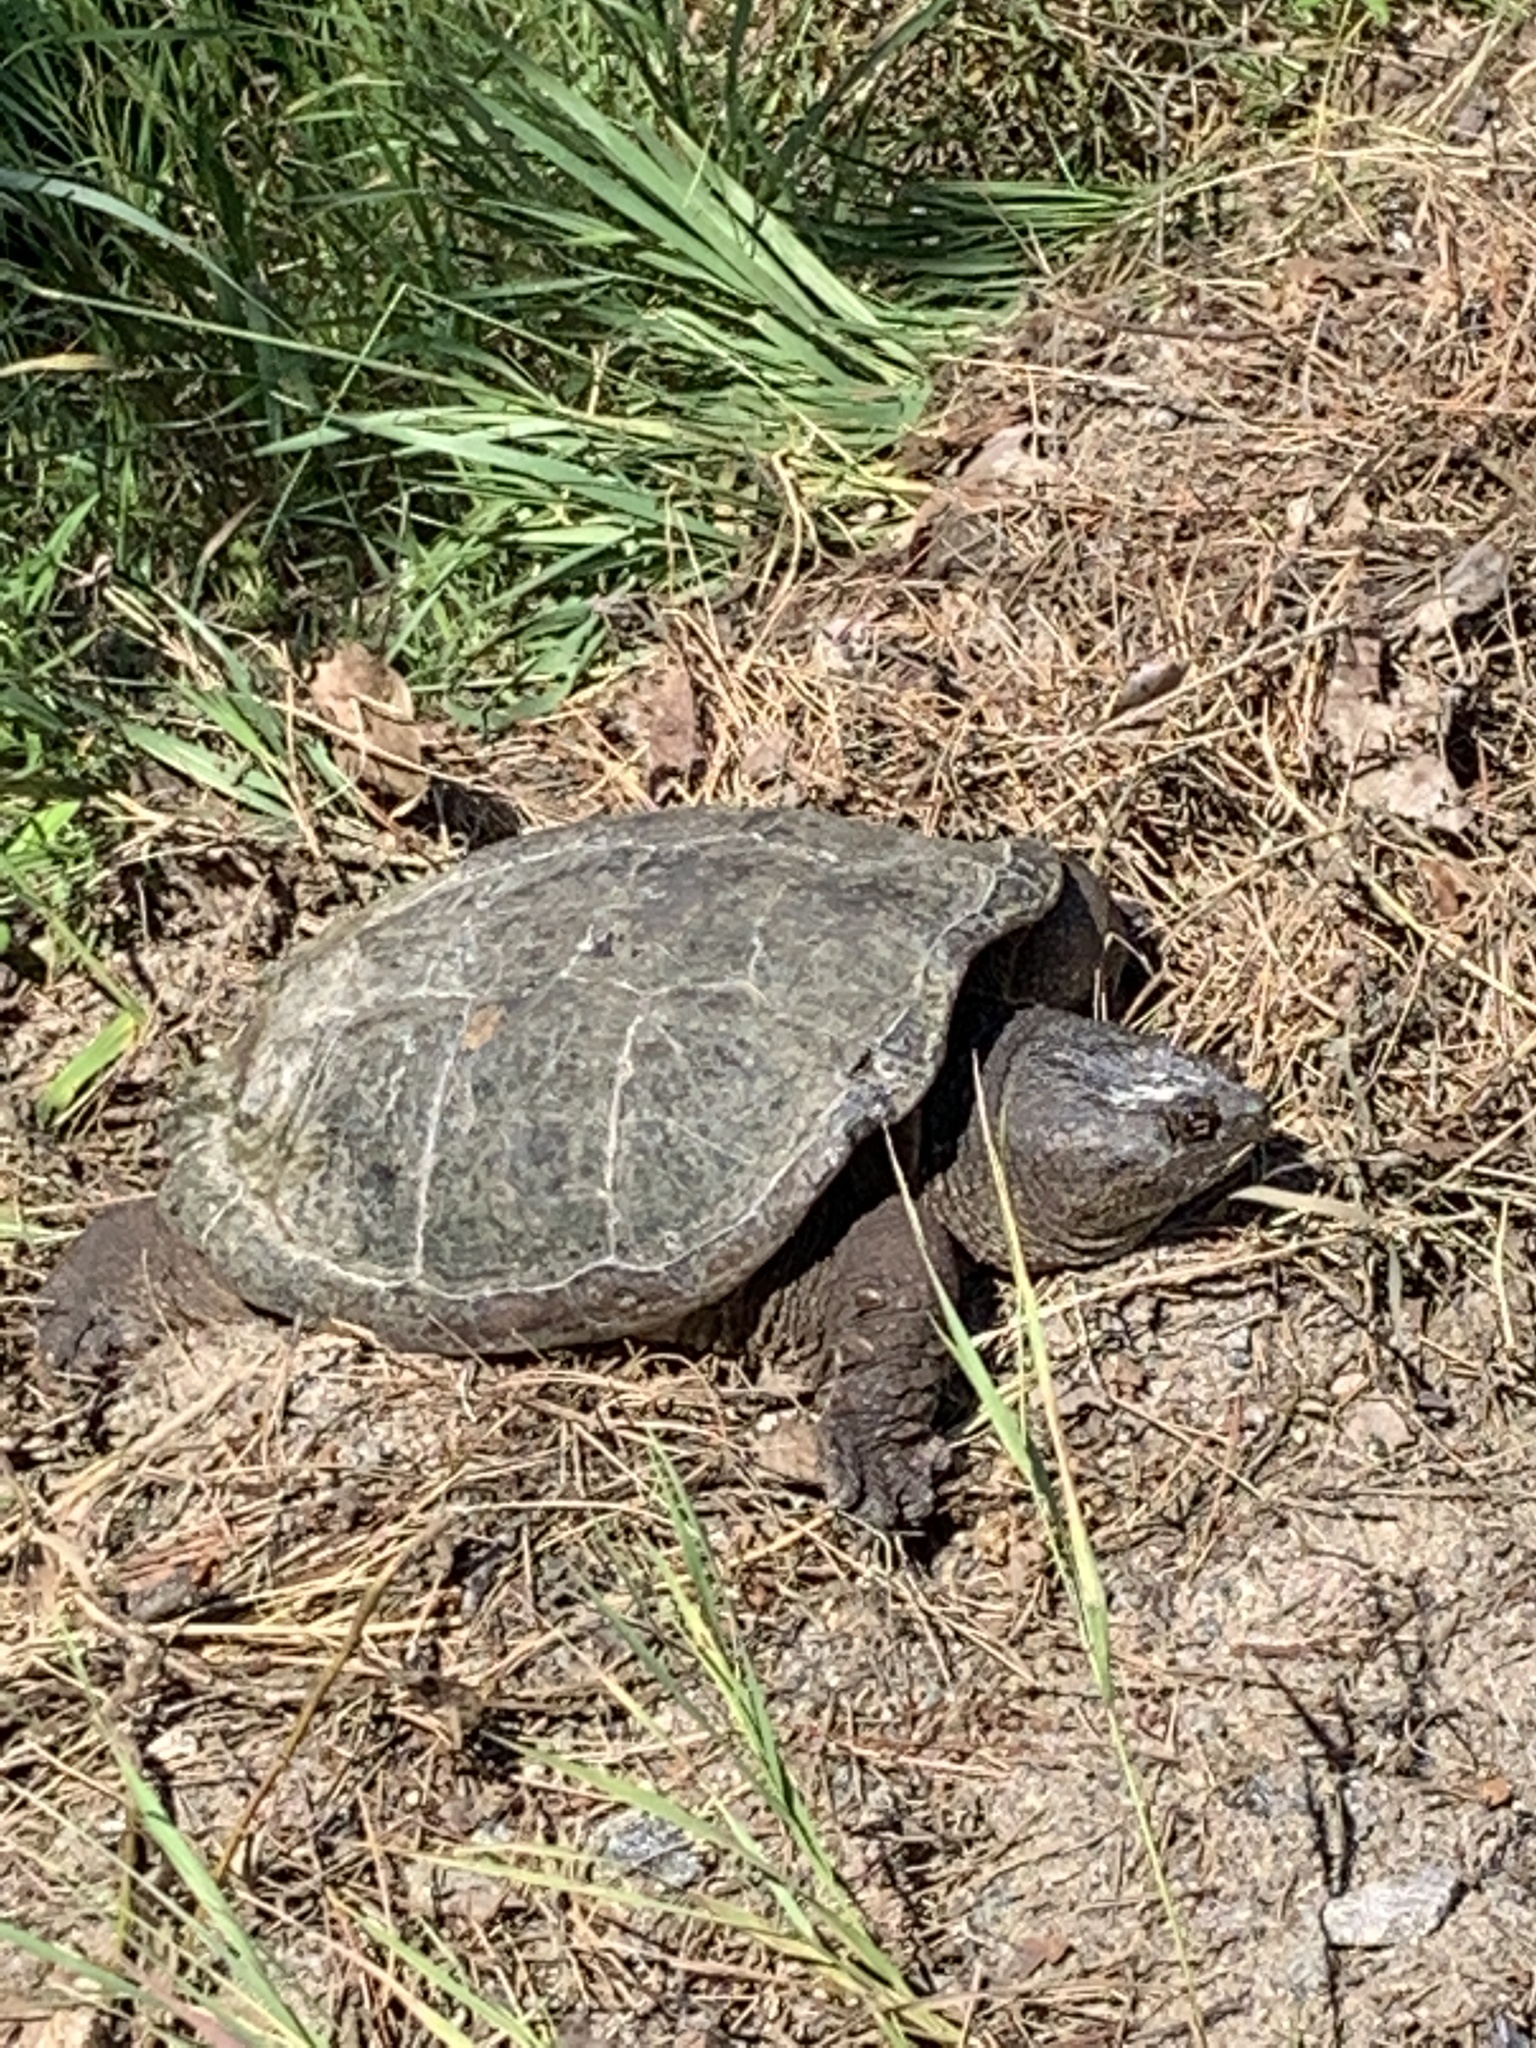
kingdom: Animalia
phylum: Chordata
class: Testudines
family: Chelydridae
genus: Chelydra
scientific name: Chelydra serpentina
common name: Common snapping turtle
